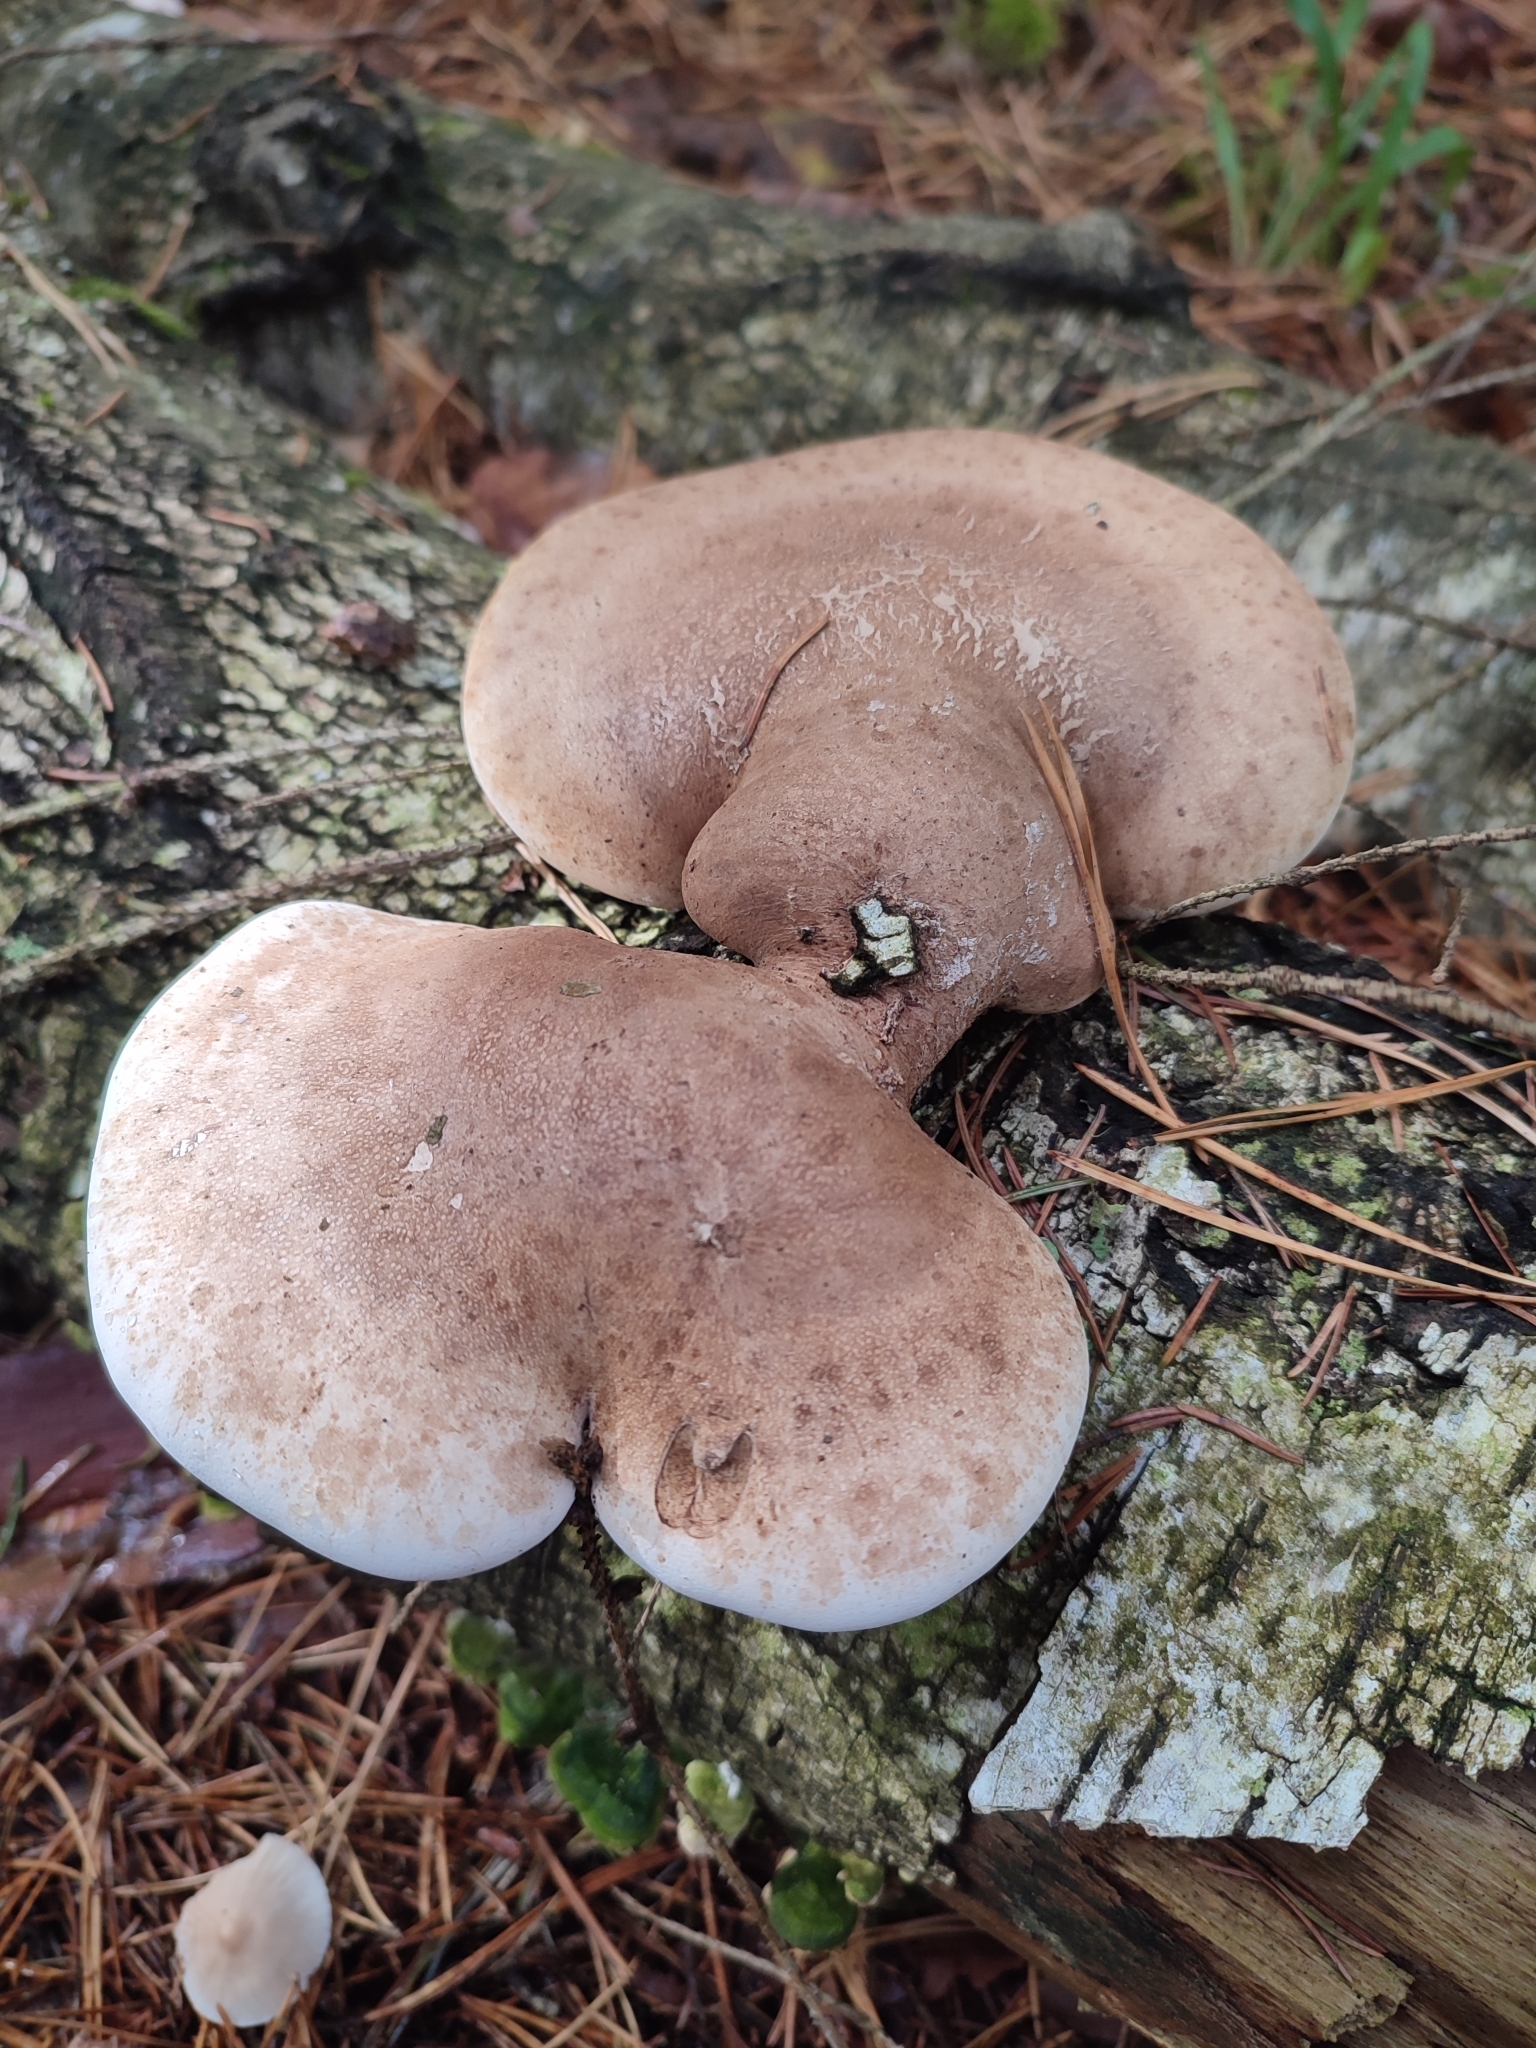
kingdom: Fungi
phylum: Basidiomycota
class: Agaricomycetes
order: Polyporales
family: Fomitopsidaceae
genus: Fomitopsis
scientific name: Fomitopsis betulina
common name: Birch polypore
